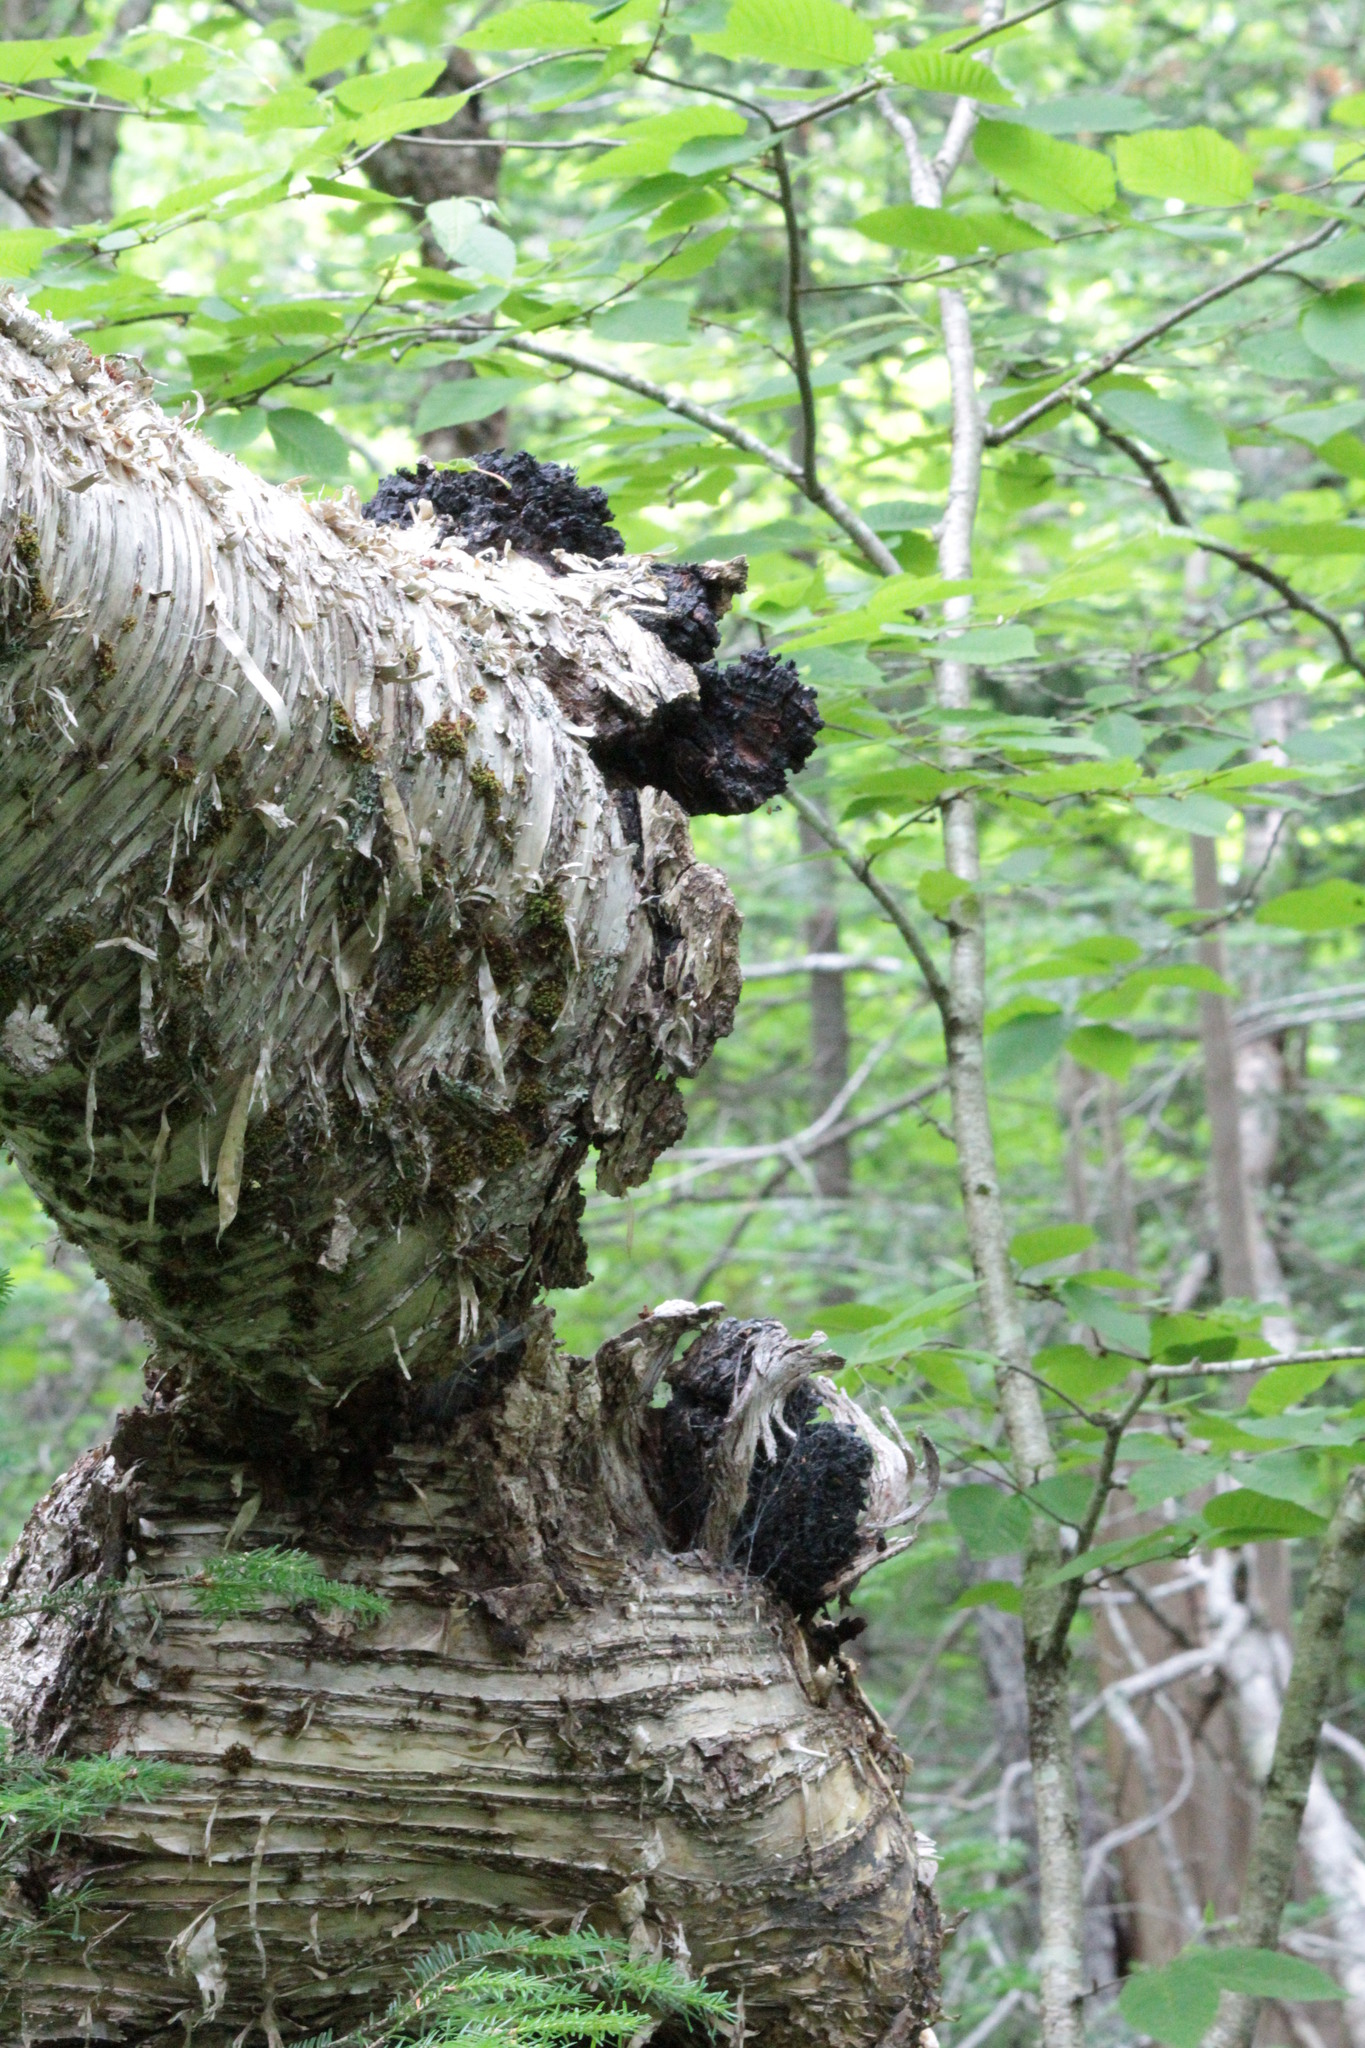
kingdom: Fungi
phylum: Basidiomycota
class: Agaricomycetes
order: Hymenochaetales
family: Hymenochaetaceae
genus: Inonotus
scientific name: Inonotus obliquus
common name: Chaga
